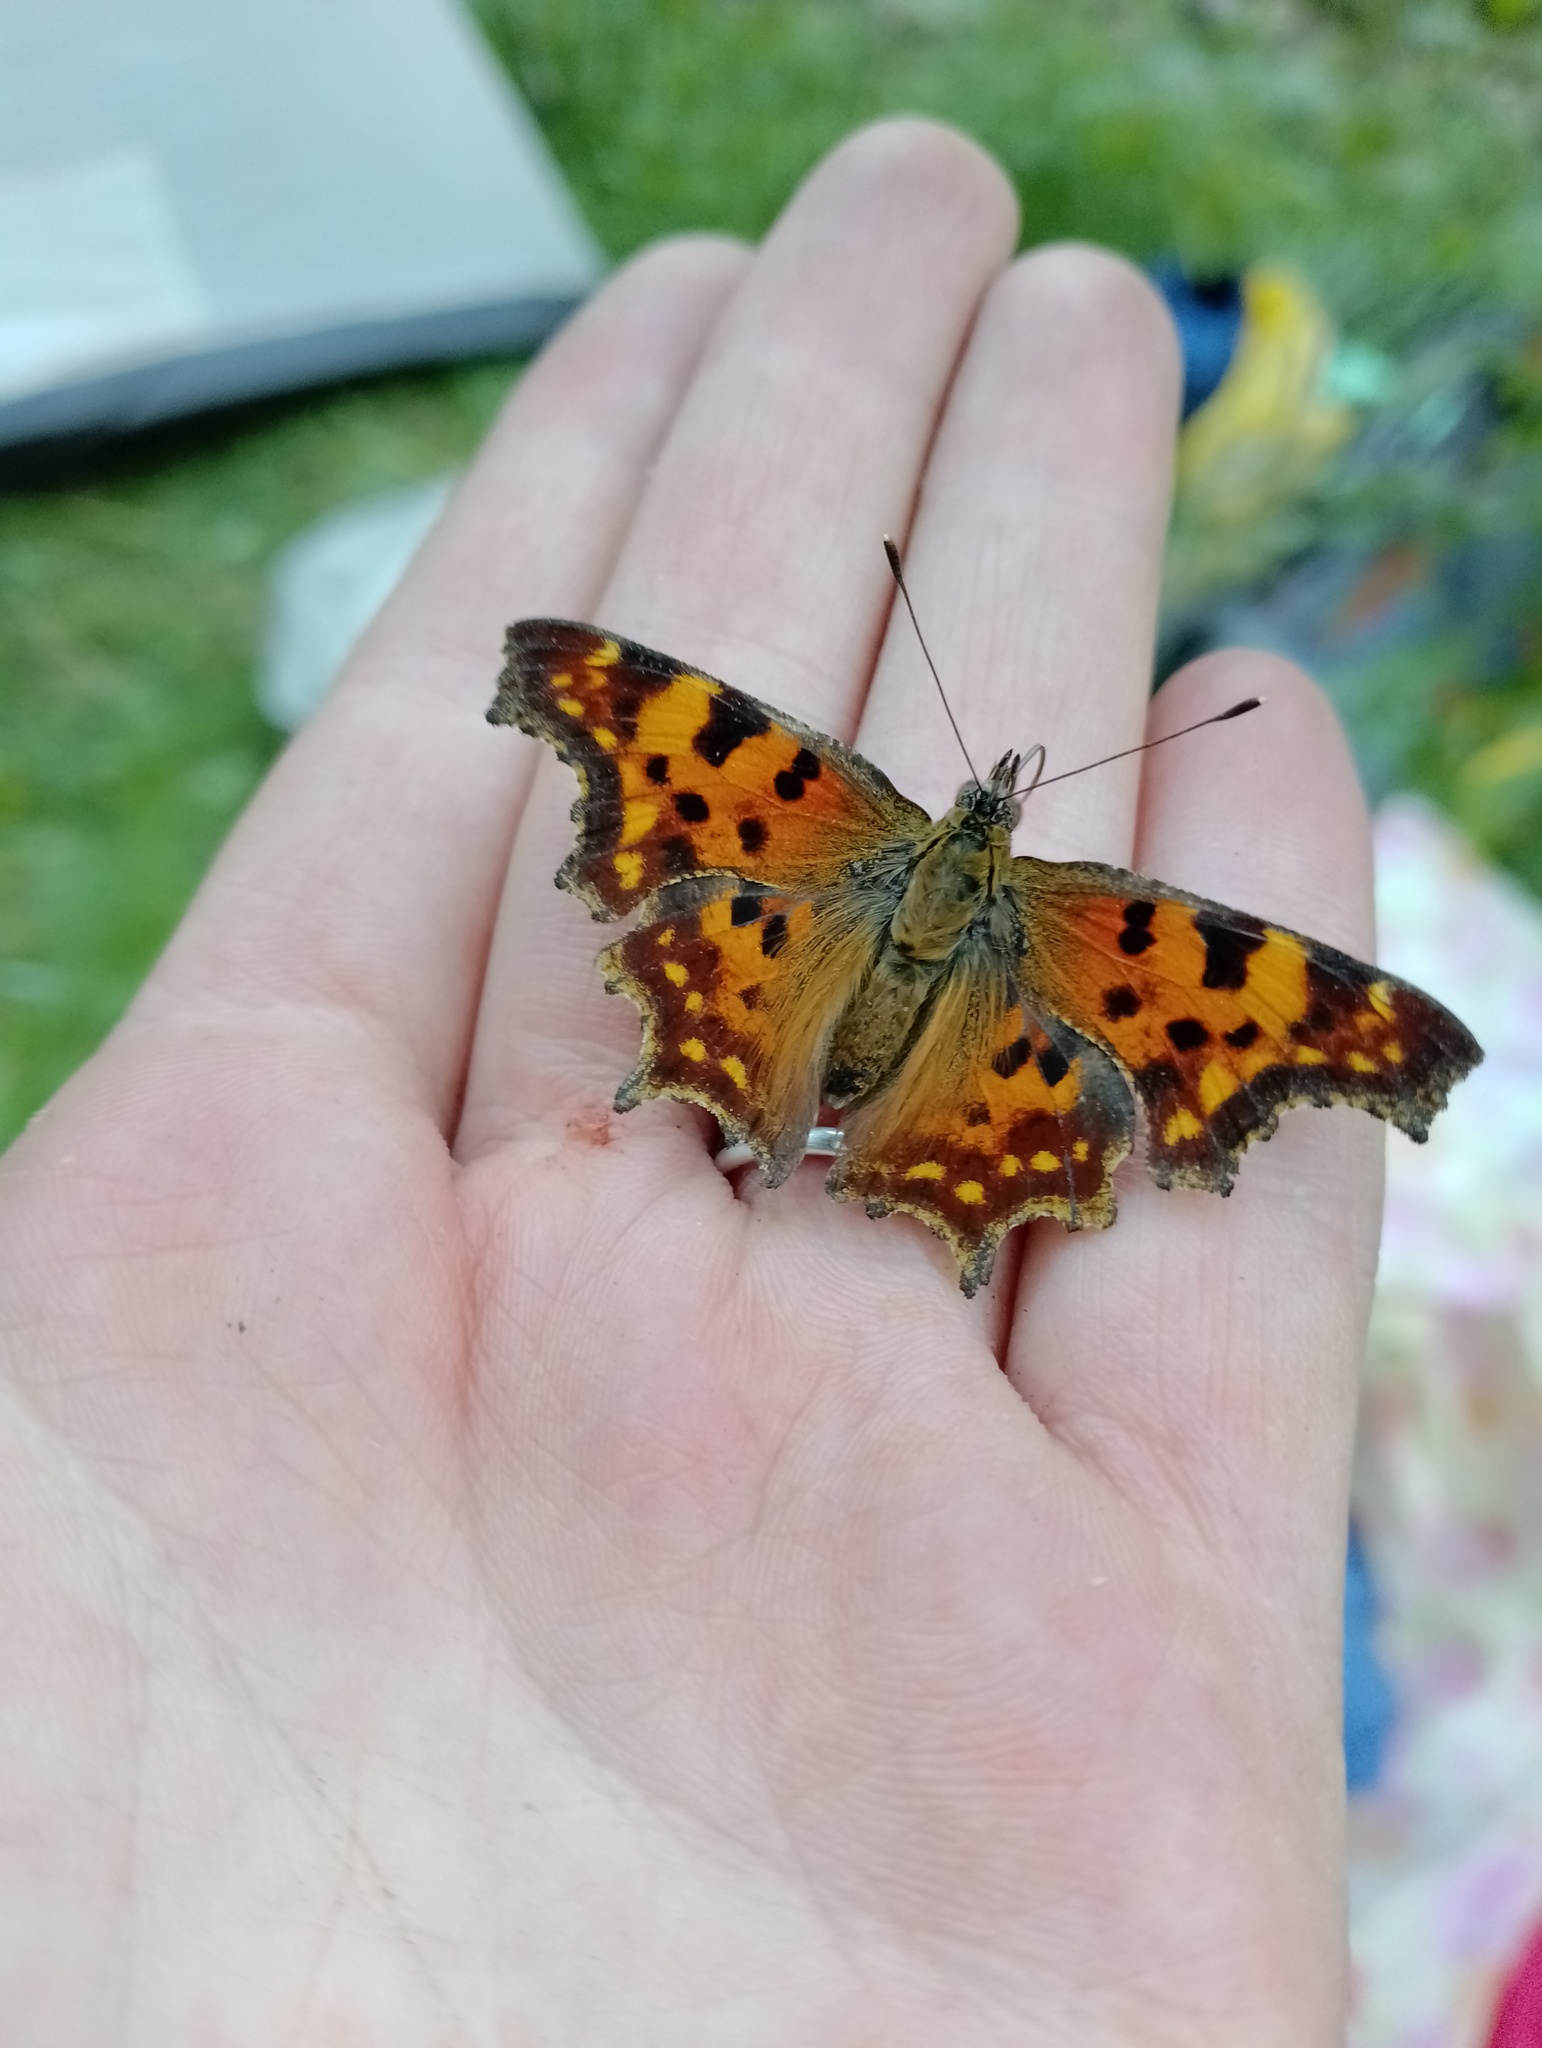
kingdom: Animalia
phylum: Arthropoda
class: Insecta
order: Lepidoptera
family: Nymphalidae
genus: Polygonia
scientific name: Polygonia c-album
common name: Comma
